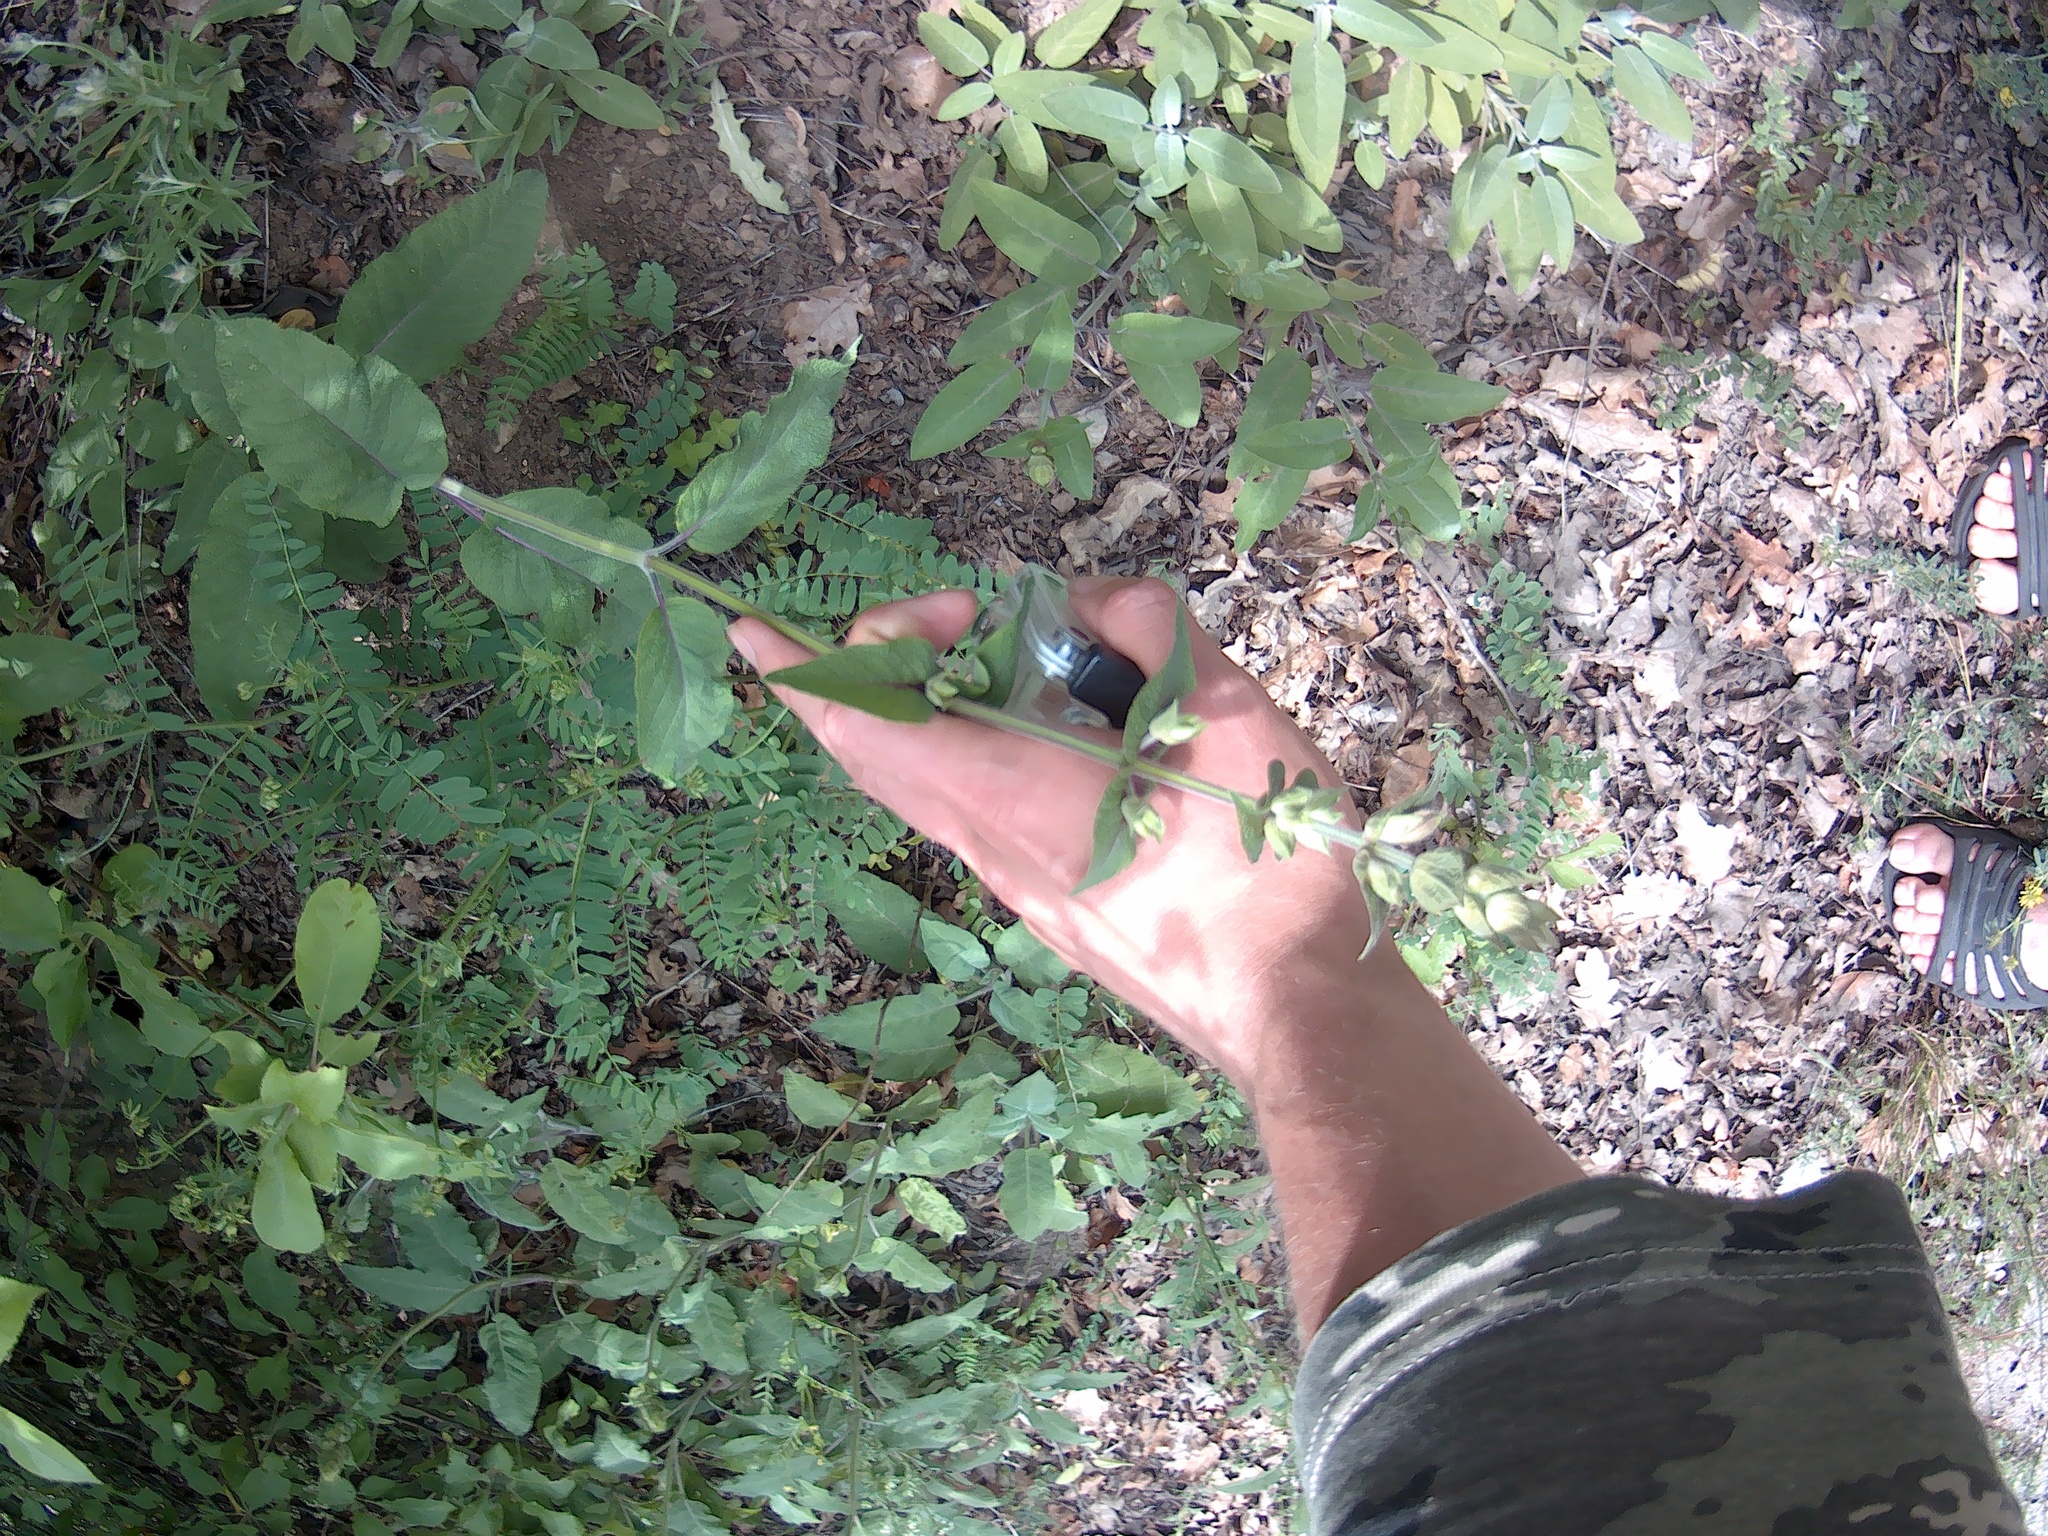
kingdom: Plantae
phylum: Tracheophyta
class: Magnoliopsida
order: Lamiales
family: Lamiaceae
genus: Salvia
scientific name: Salvia tomentosa
